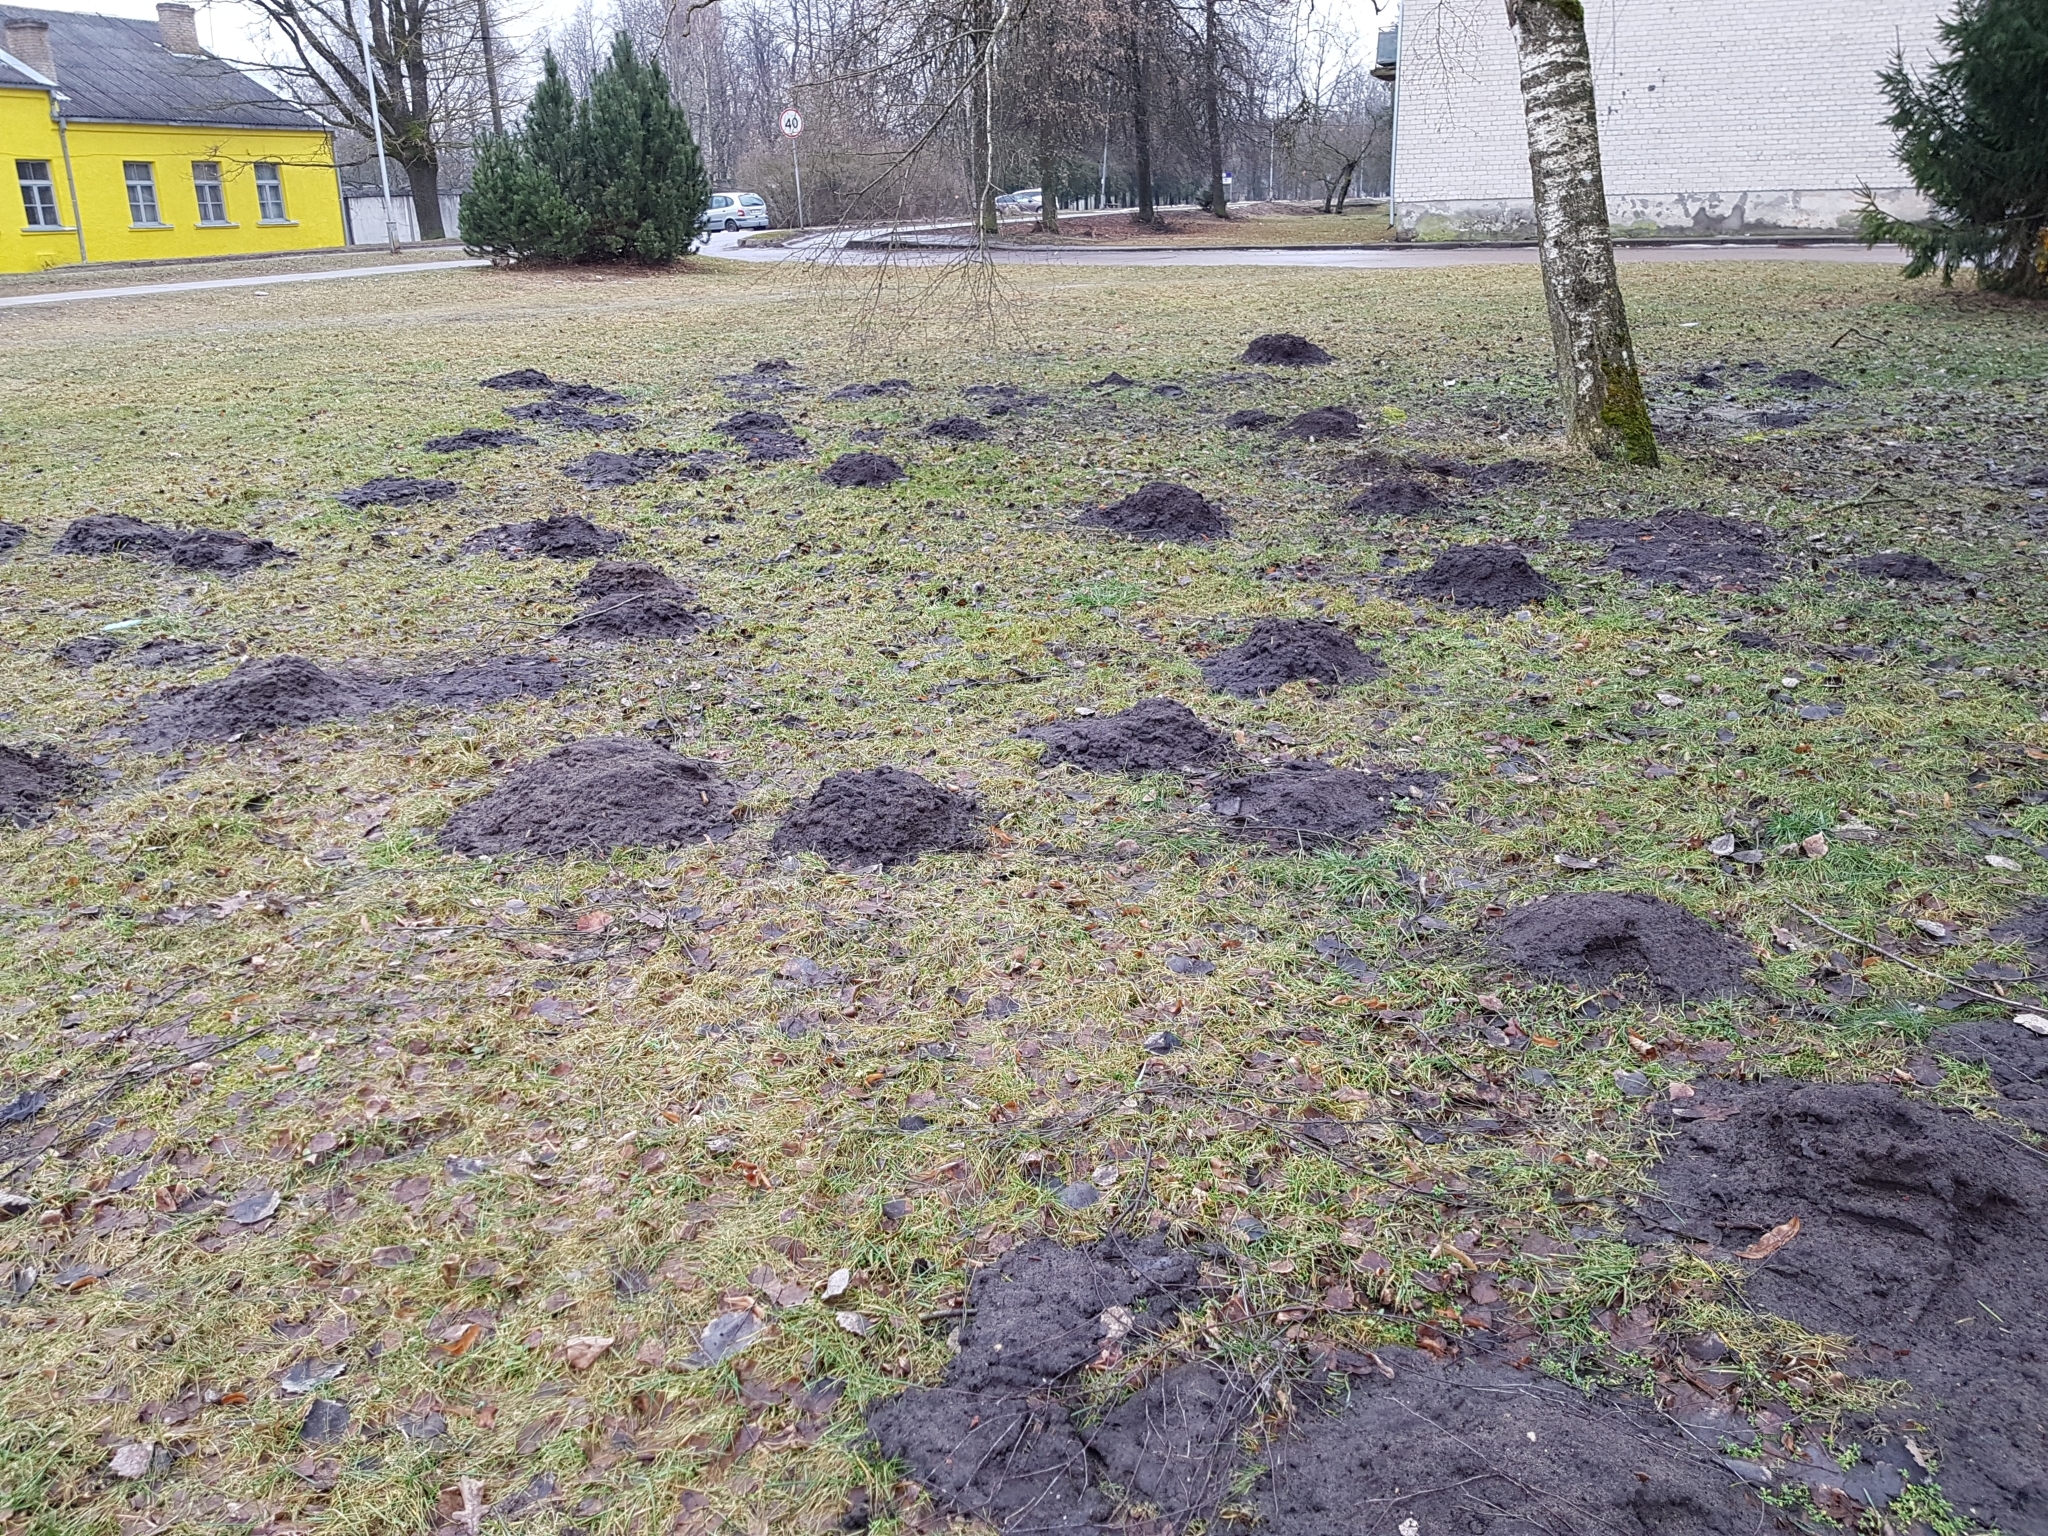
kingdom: Animalia
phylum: Chordata
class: Mammalia
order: Soricomorpha
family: Talpidae
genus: Talpa
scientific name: Talpa europaea
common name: European mole
